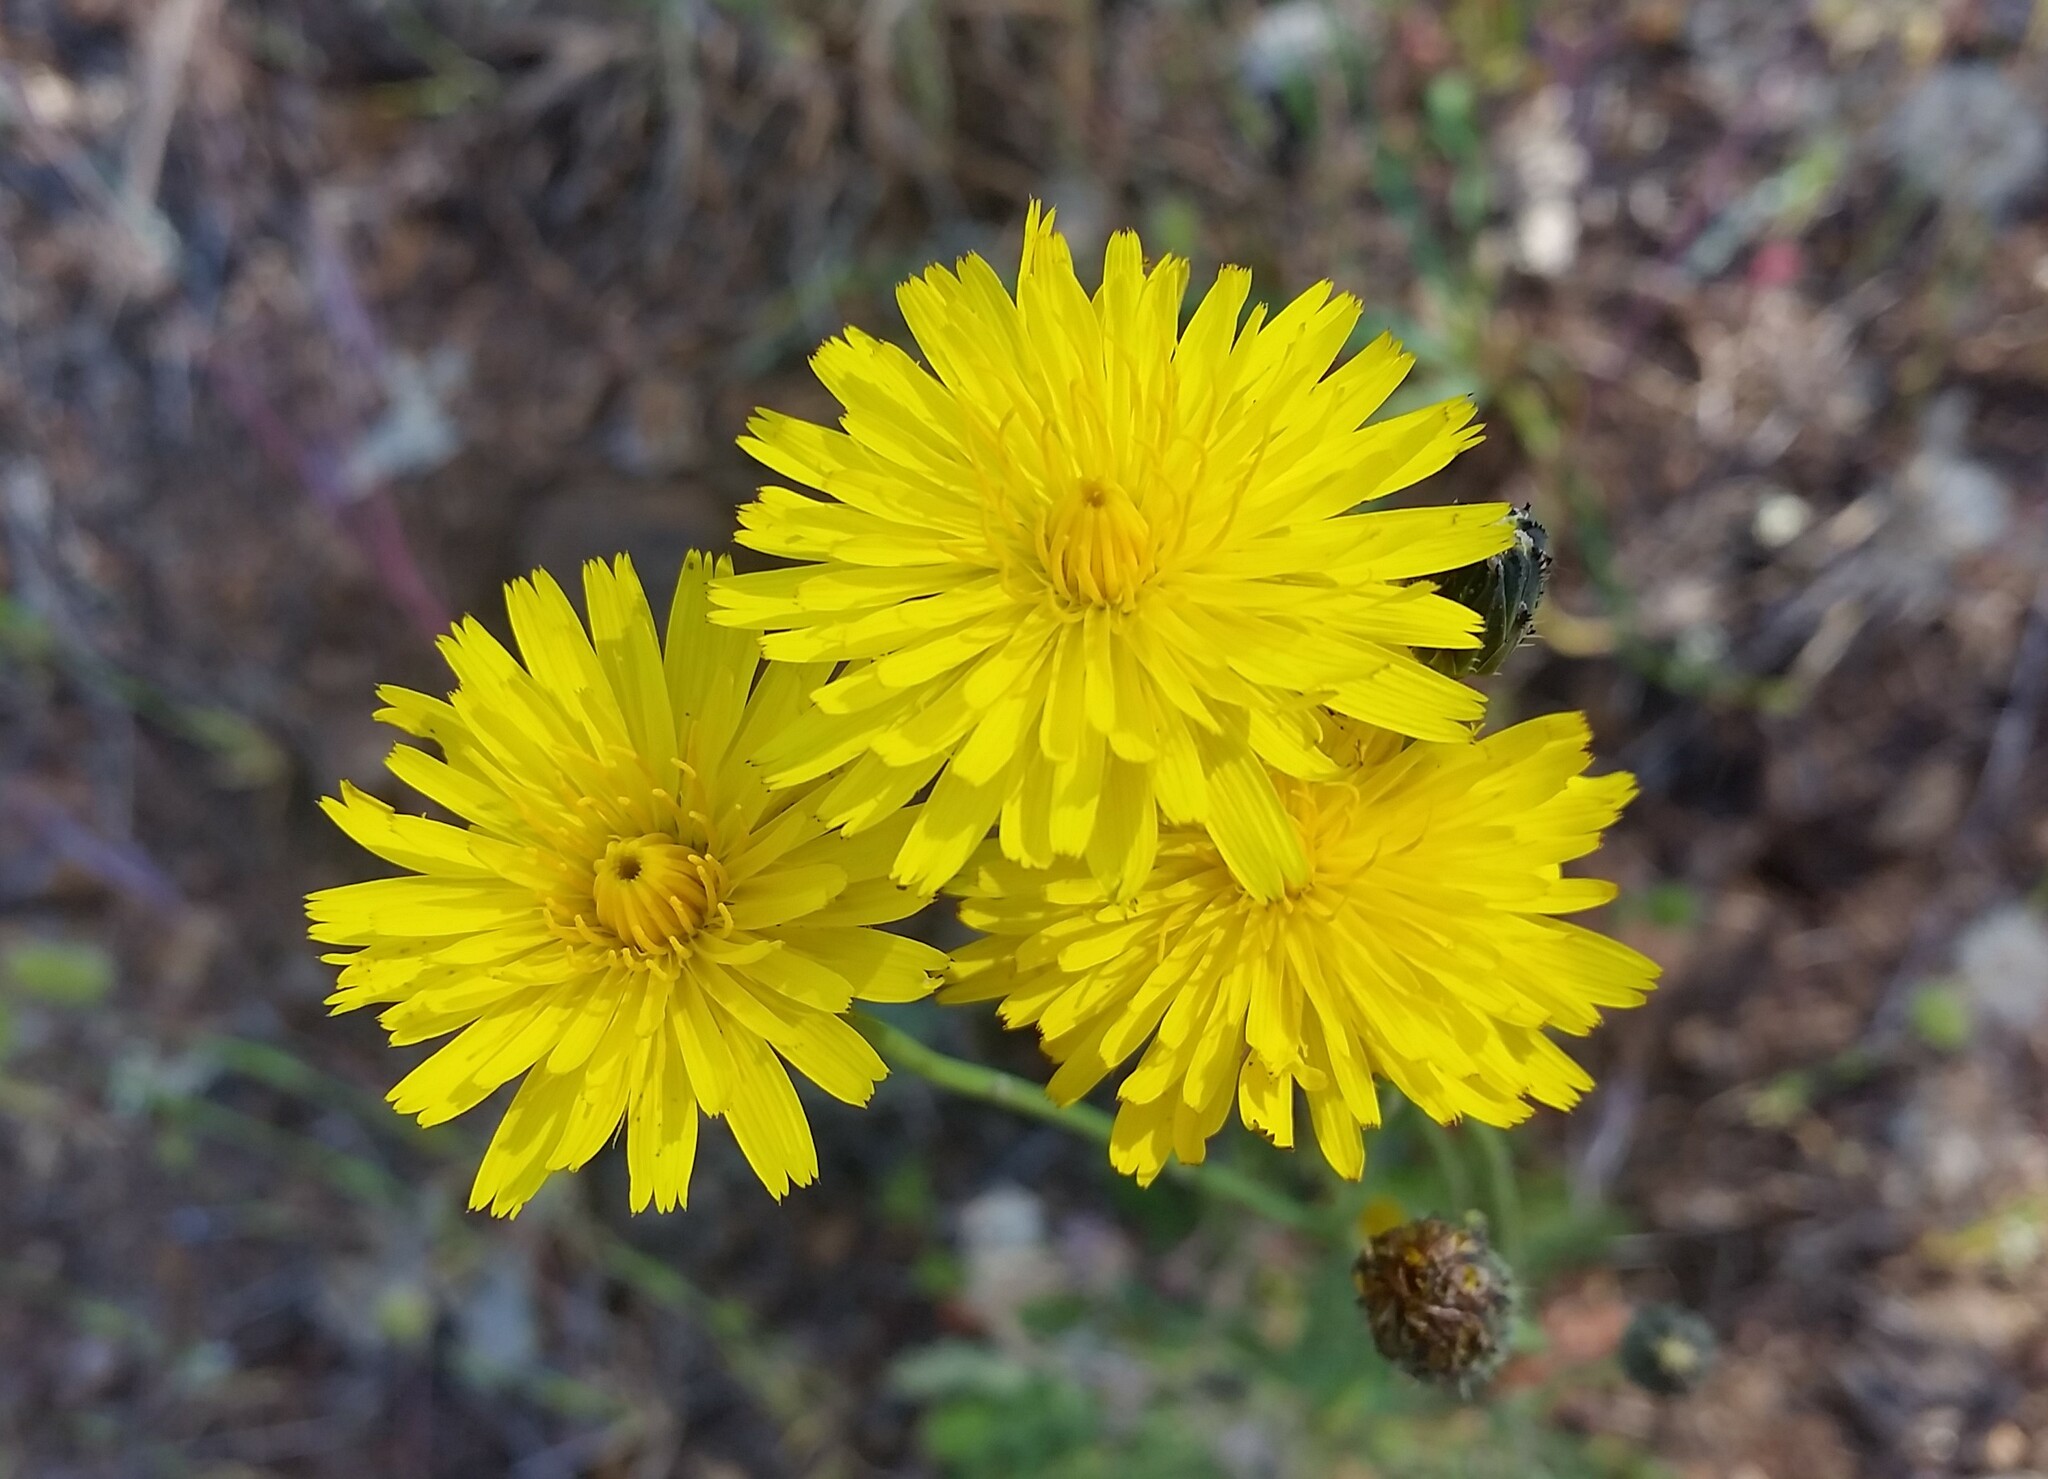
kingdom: Plantae
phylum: Tracheophyta
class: Magnoliopsida
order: Asterales
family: Asteraceae
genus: Hypochaeris
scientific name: Hypochaeris radicata
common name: Flatweed
